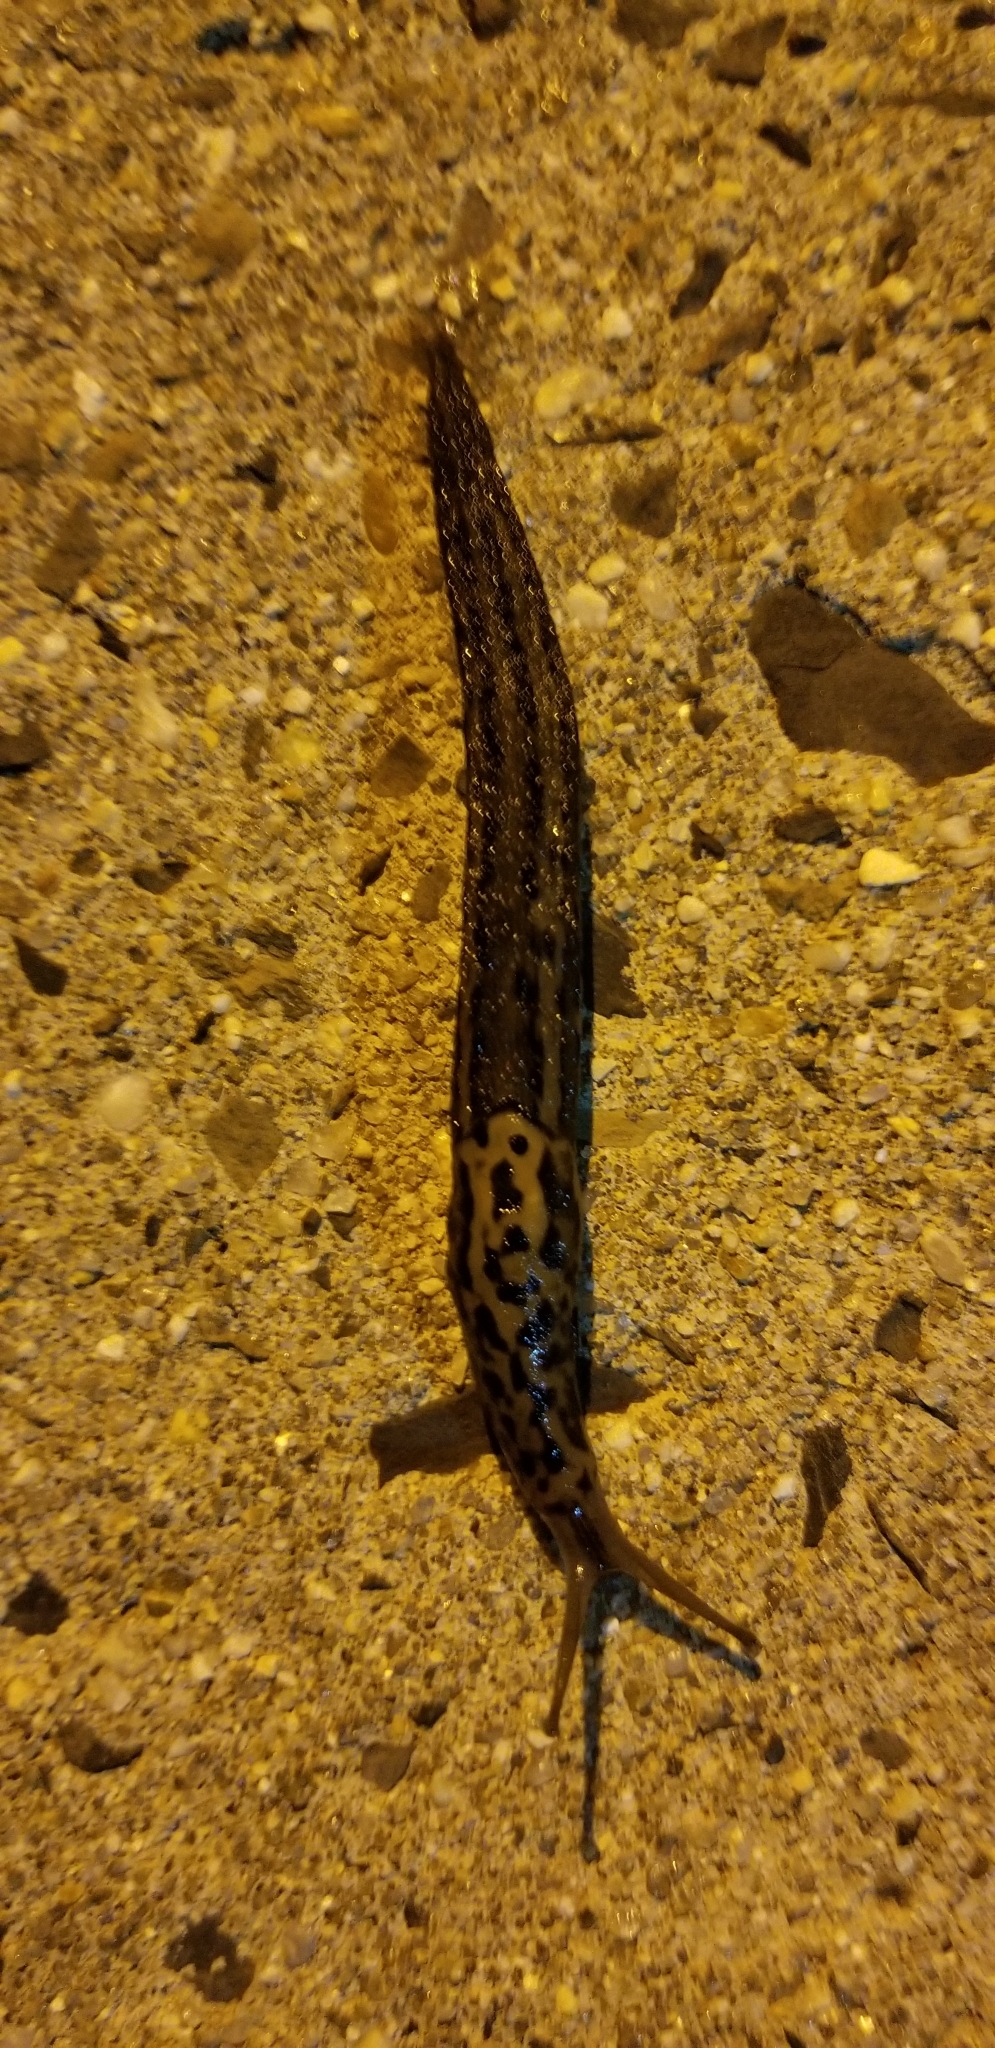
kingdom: Animalia
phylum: Mollusca
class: Gastropoda
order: Stylommatophora
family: Limacidae
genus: Limax
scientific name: Limax maximus
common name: Great grey slug
